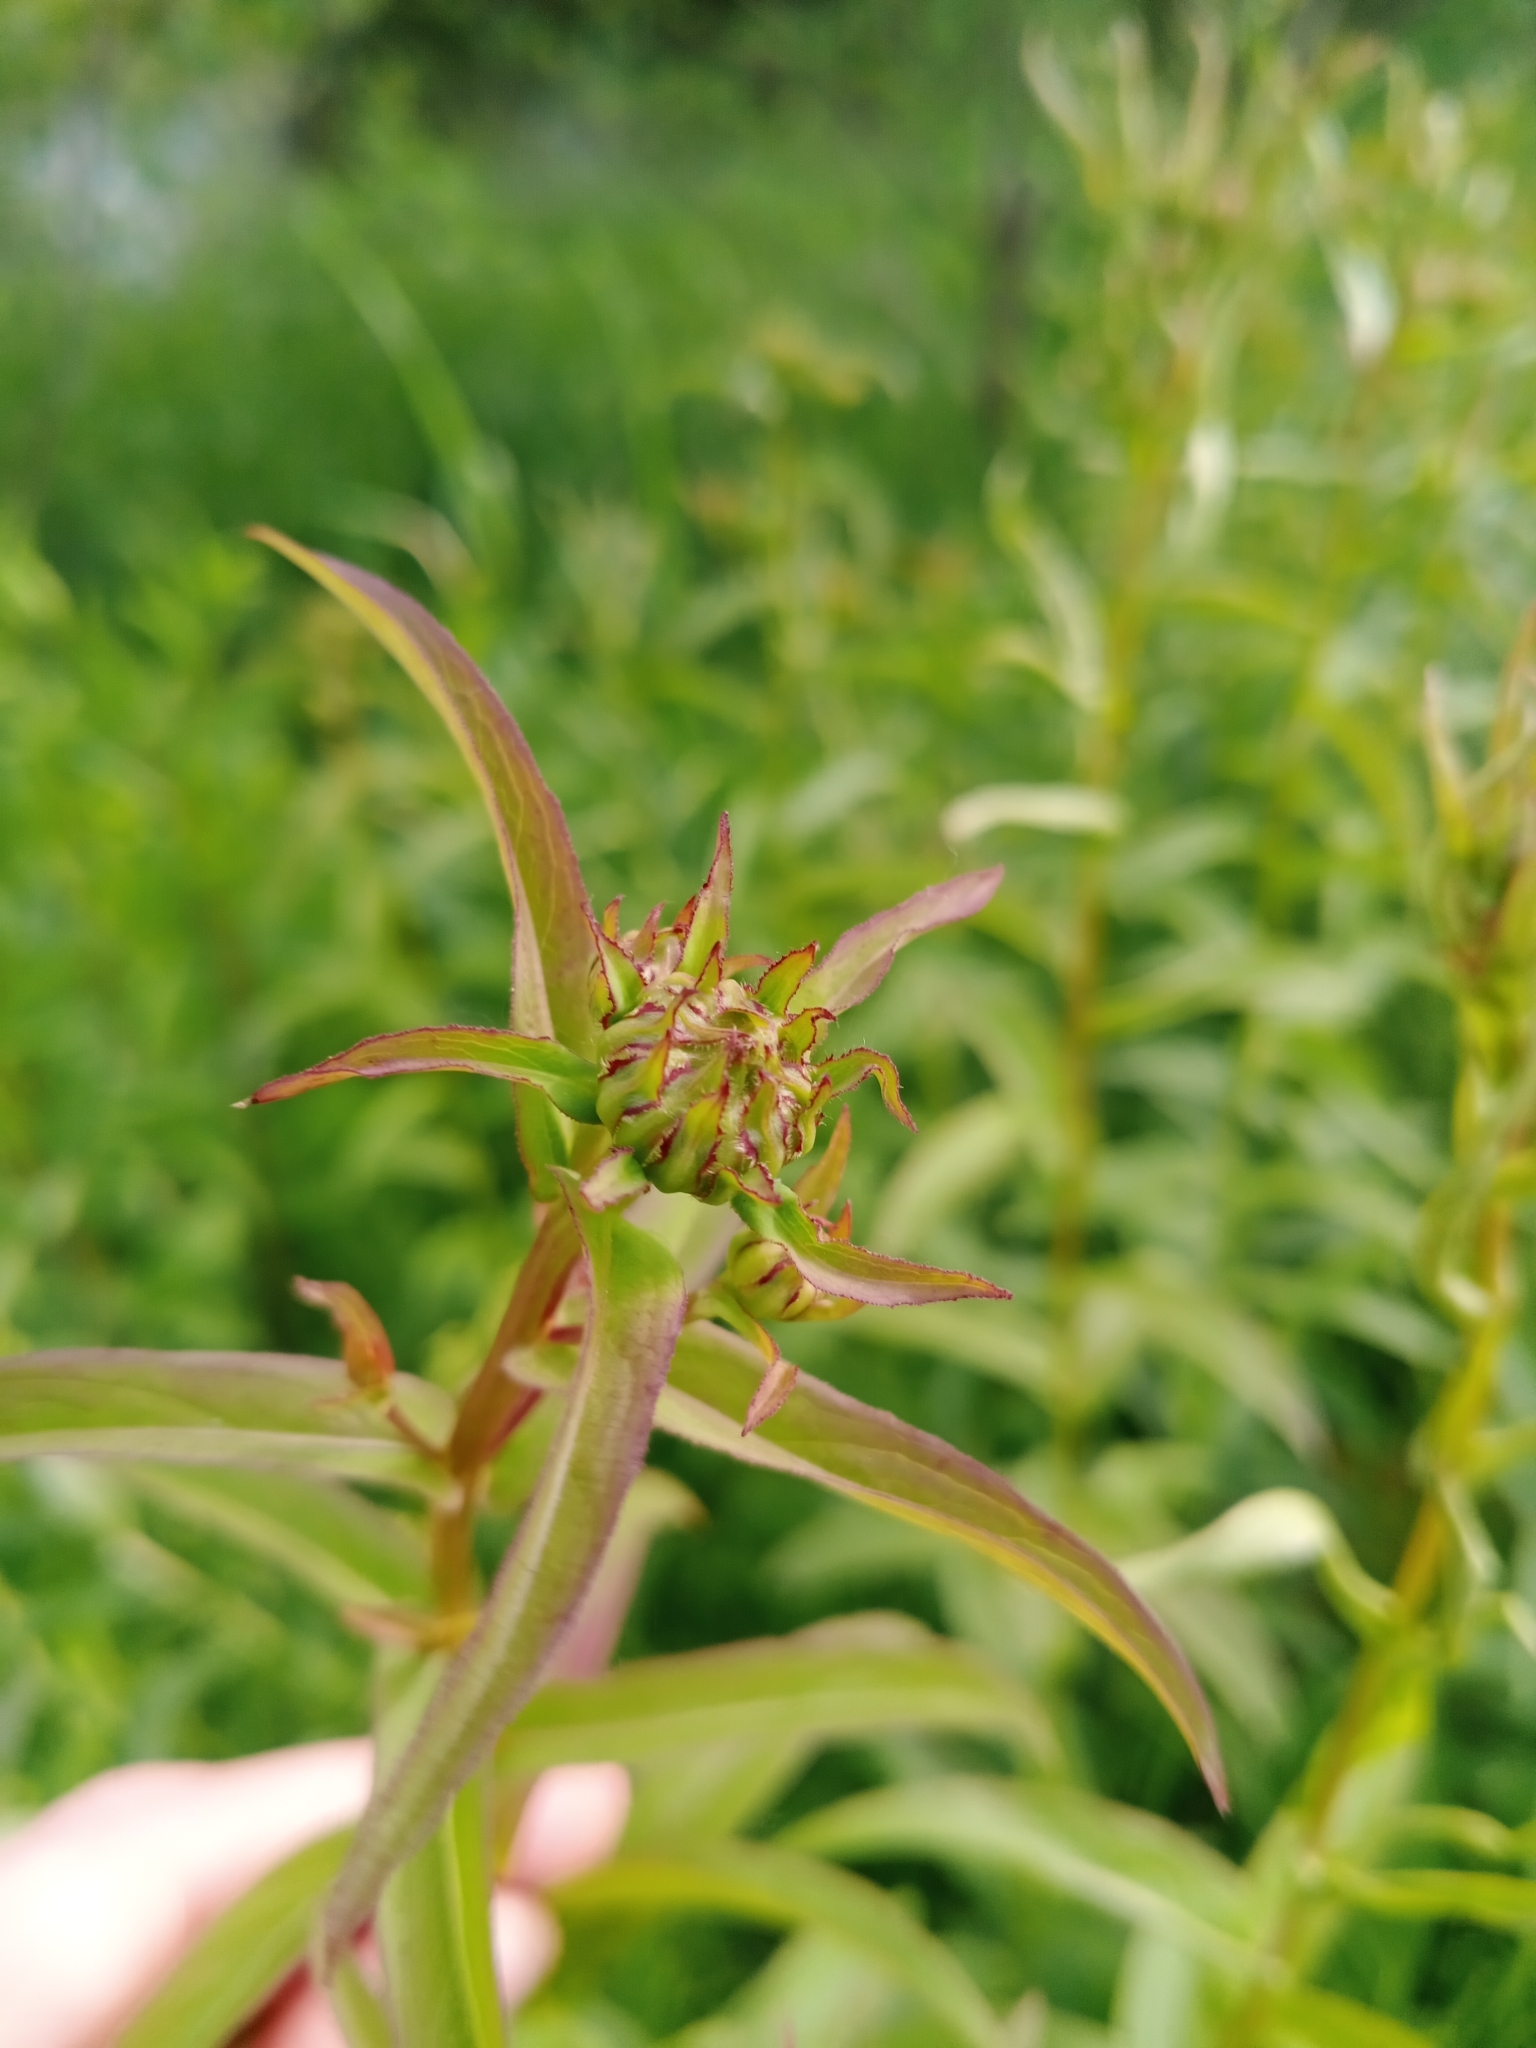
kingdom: Plantae
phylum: Tracheophyta
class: Magnoliopsida
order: Asterales
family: Asteraceae
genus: Pentanema
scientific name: Pentanema salicinum
